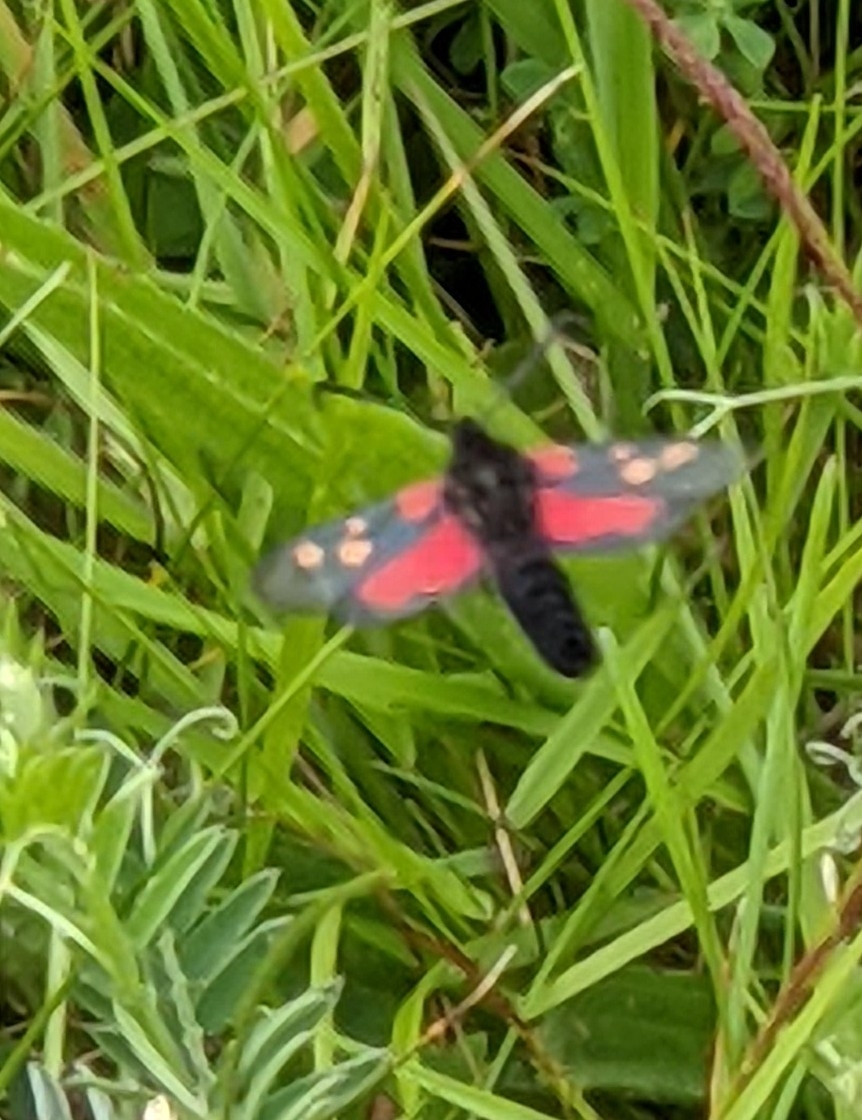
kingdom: Animalia
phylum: Arthropoda
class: Insecta
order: Lepidoptera
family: Zygaenidae
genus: Zygaena
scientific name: Zygaena trifolii
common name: Five-spot burnet
